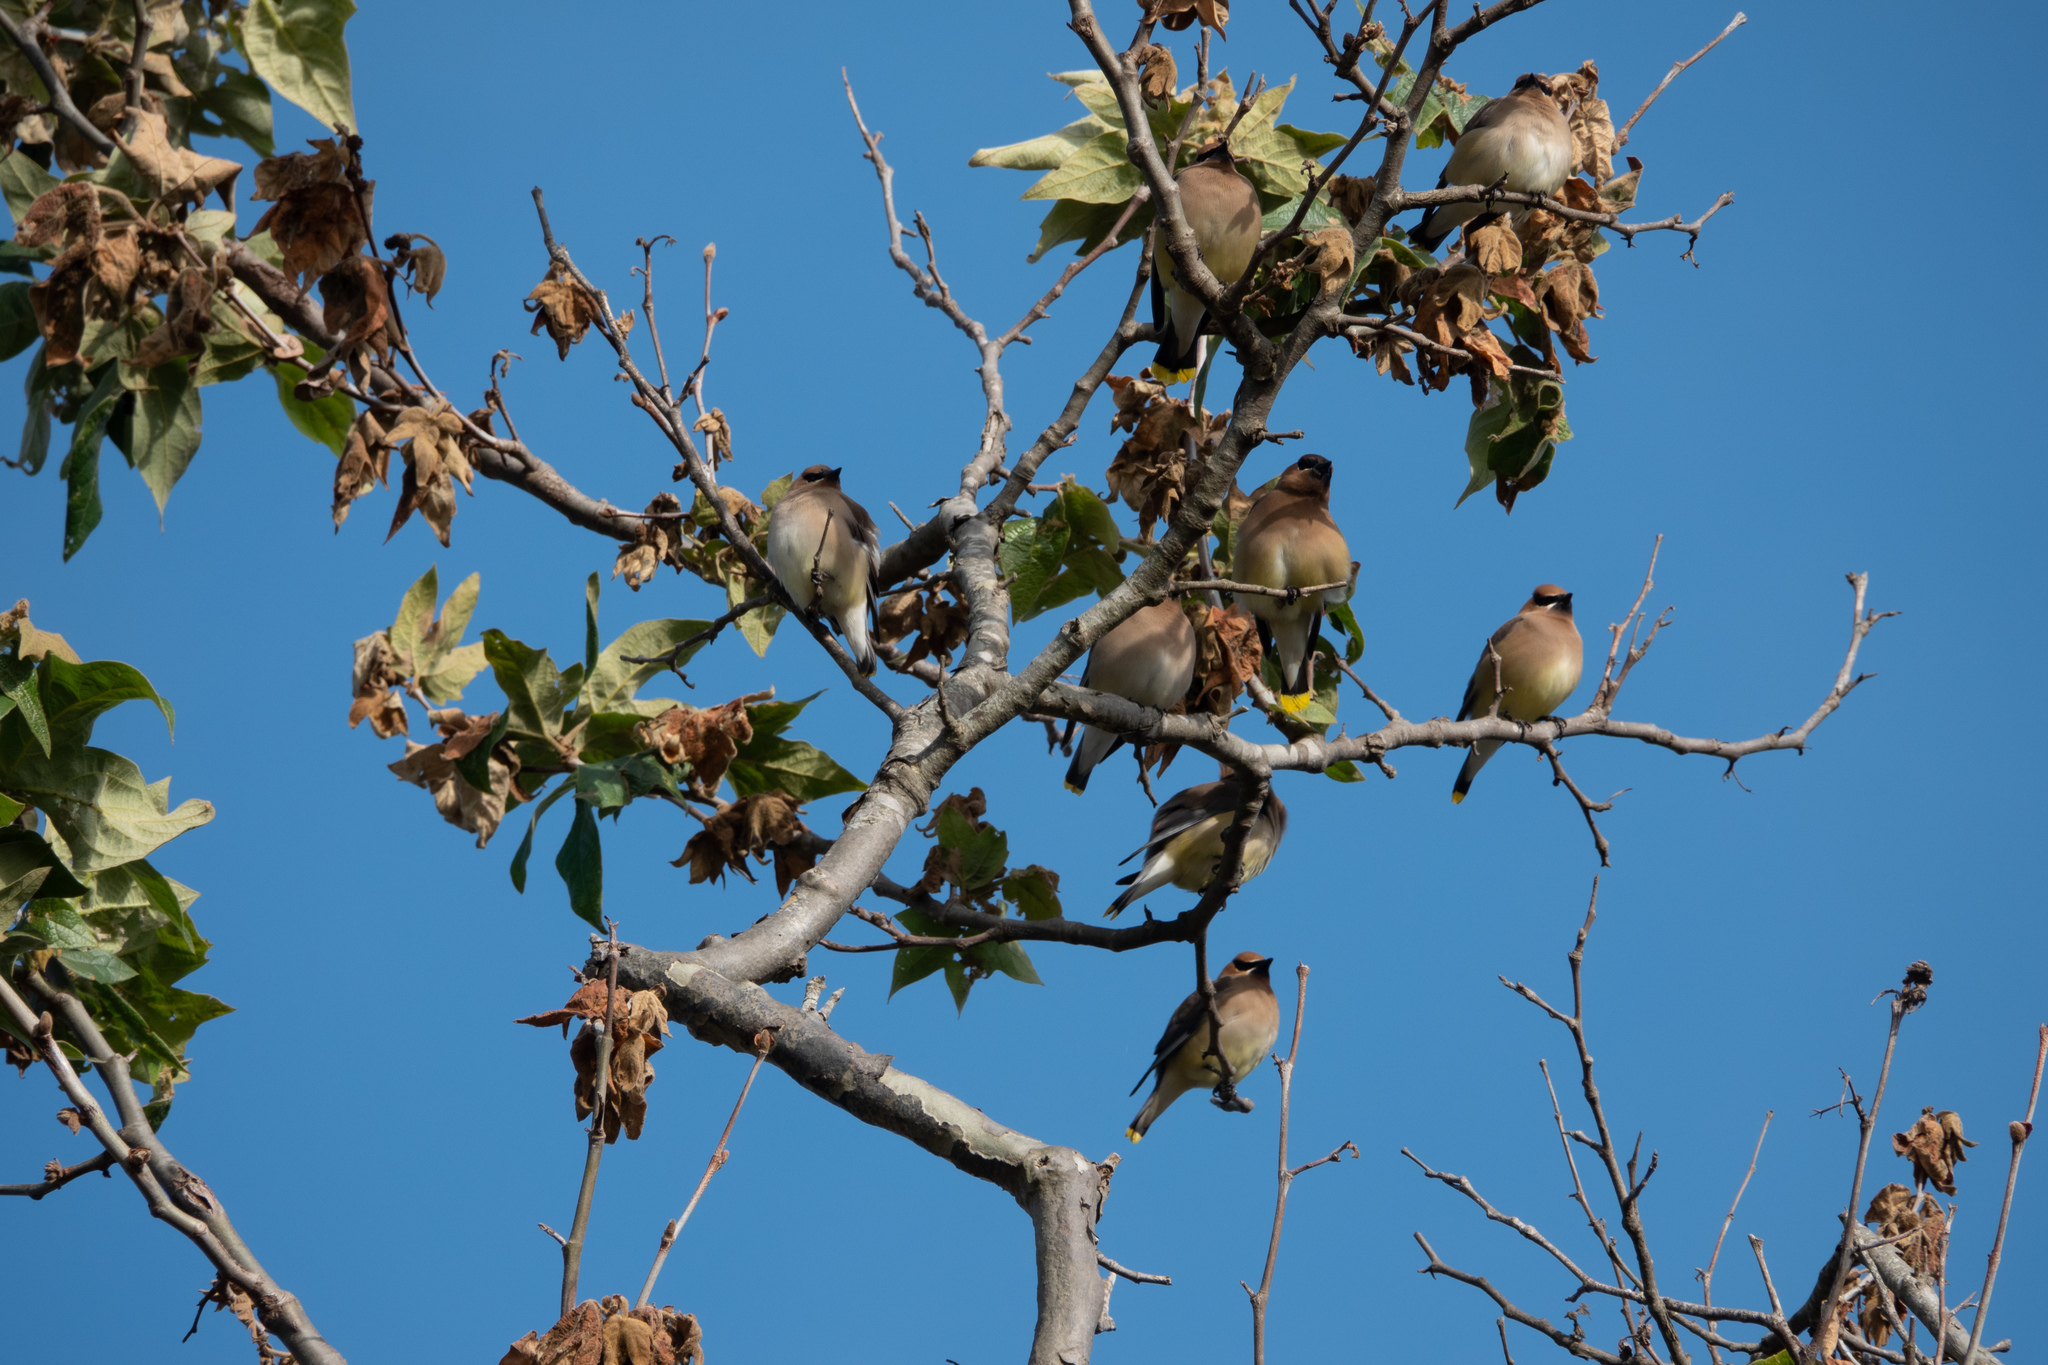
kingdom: Animalia
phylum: Chordata
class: Aves
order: Passeriformes
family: Bombycillidae
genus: Bombycilla
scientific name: Bombycilla cedrorum
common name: Cedar waxwing
